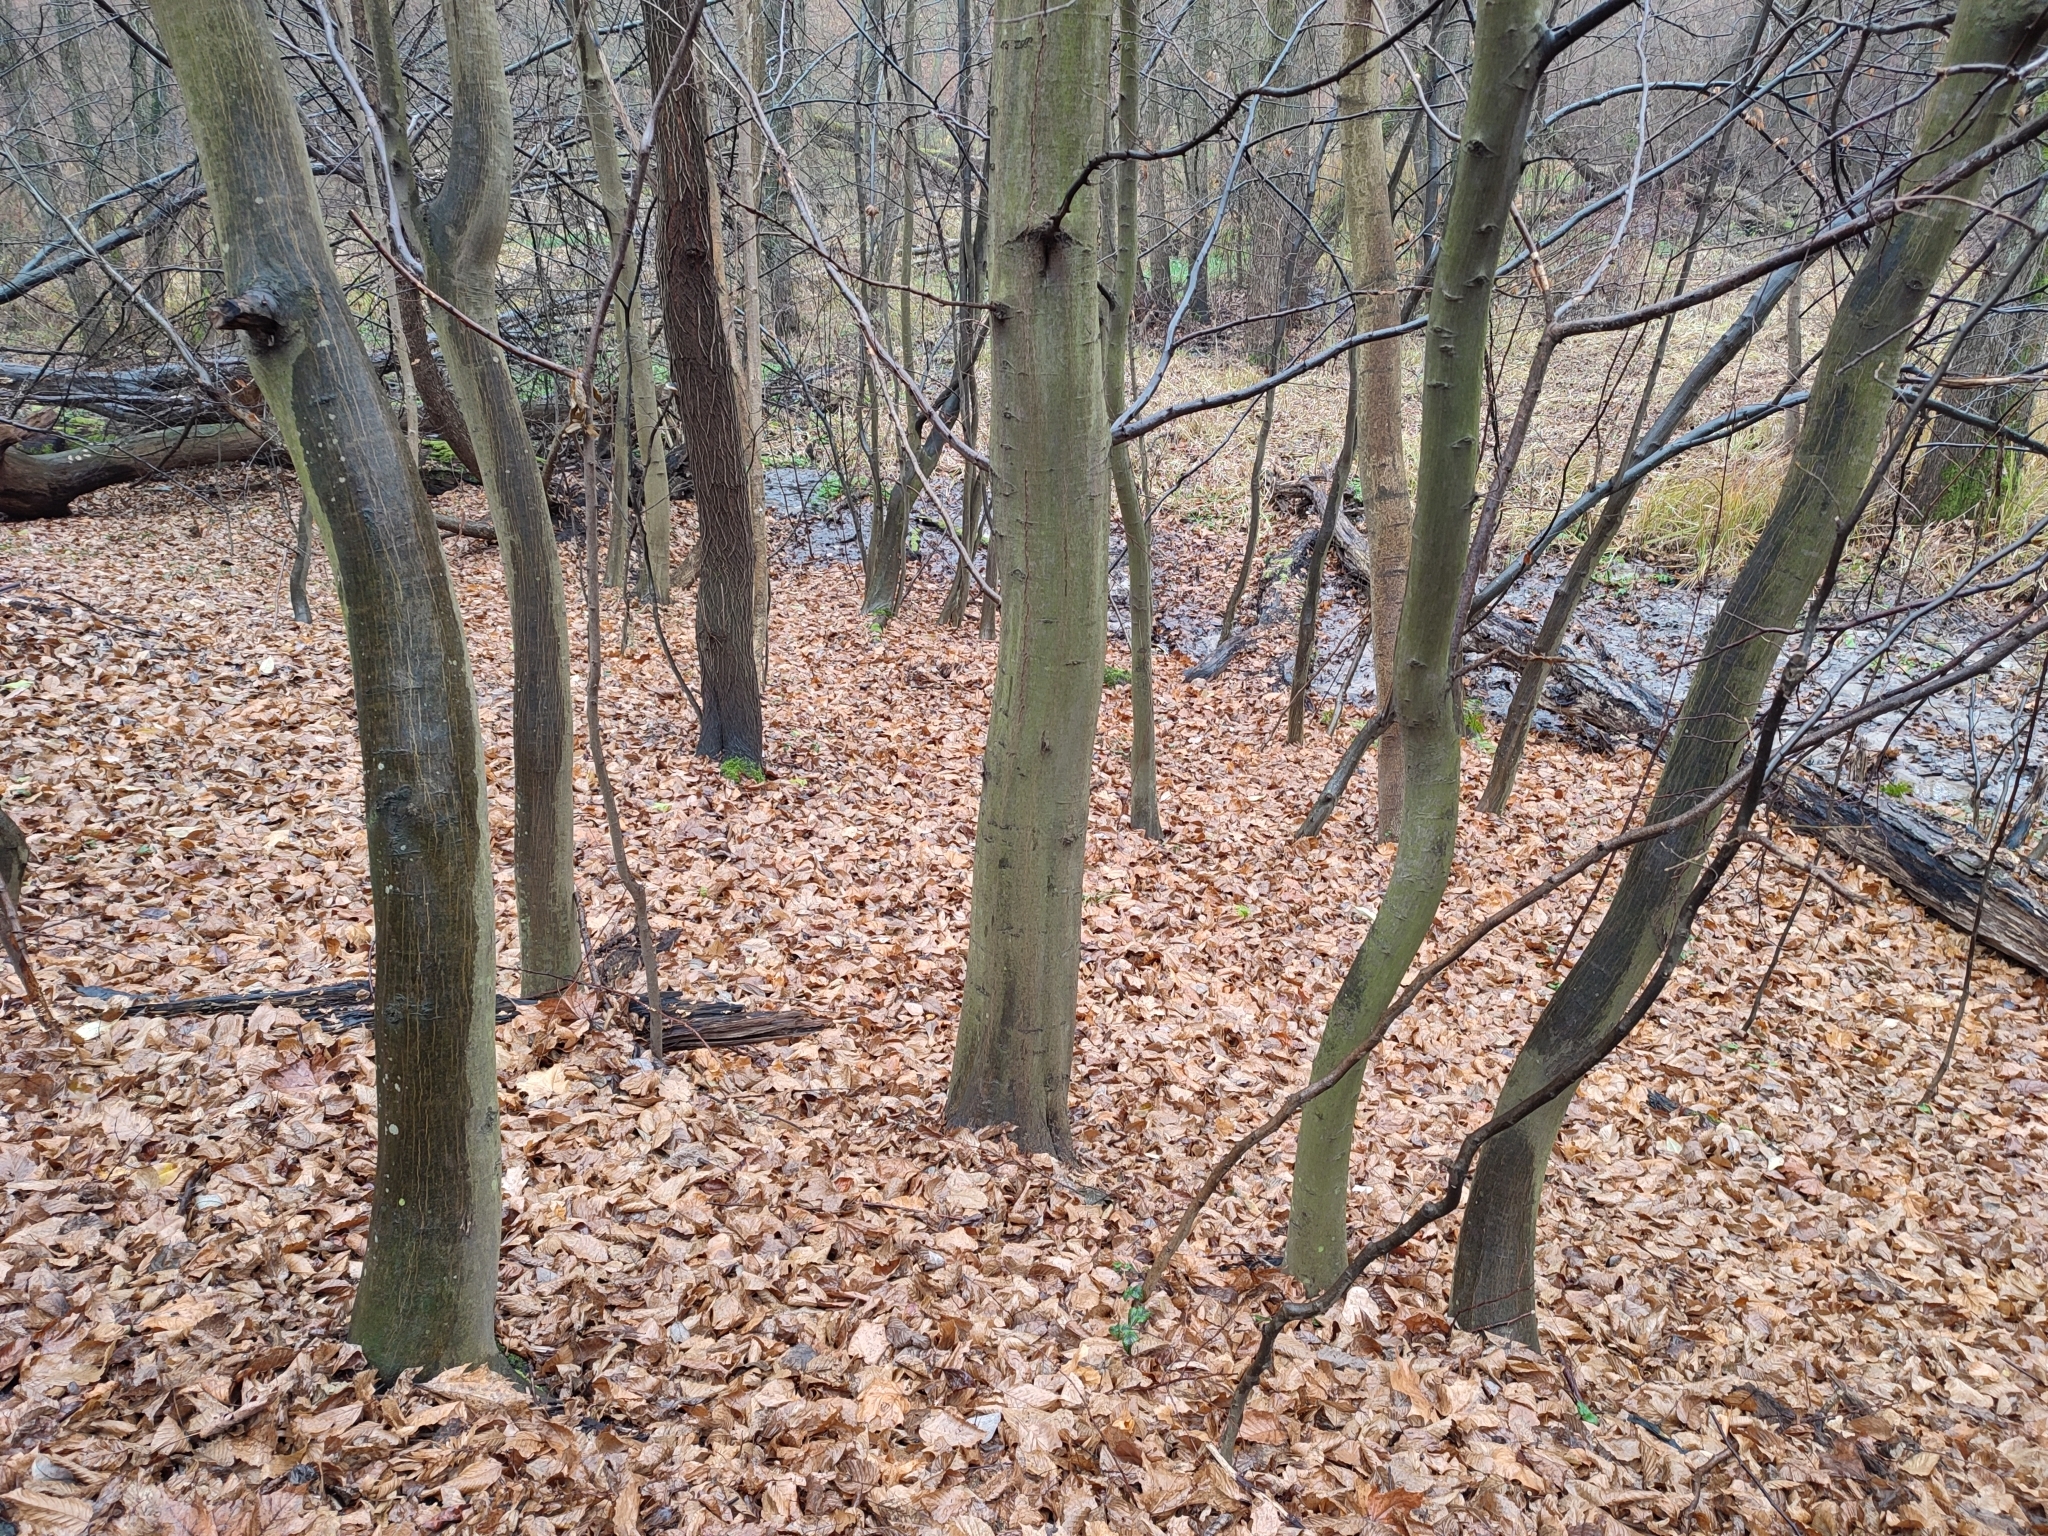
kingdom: Plantae
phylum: Tracheophyta
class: Magnoliopsida
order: Fagales
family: Betulaceae
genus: Carpinus
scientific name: Carpinus betulus
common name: Hornbeam
